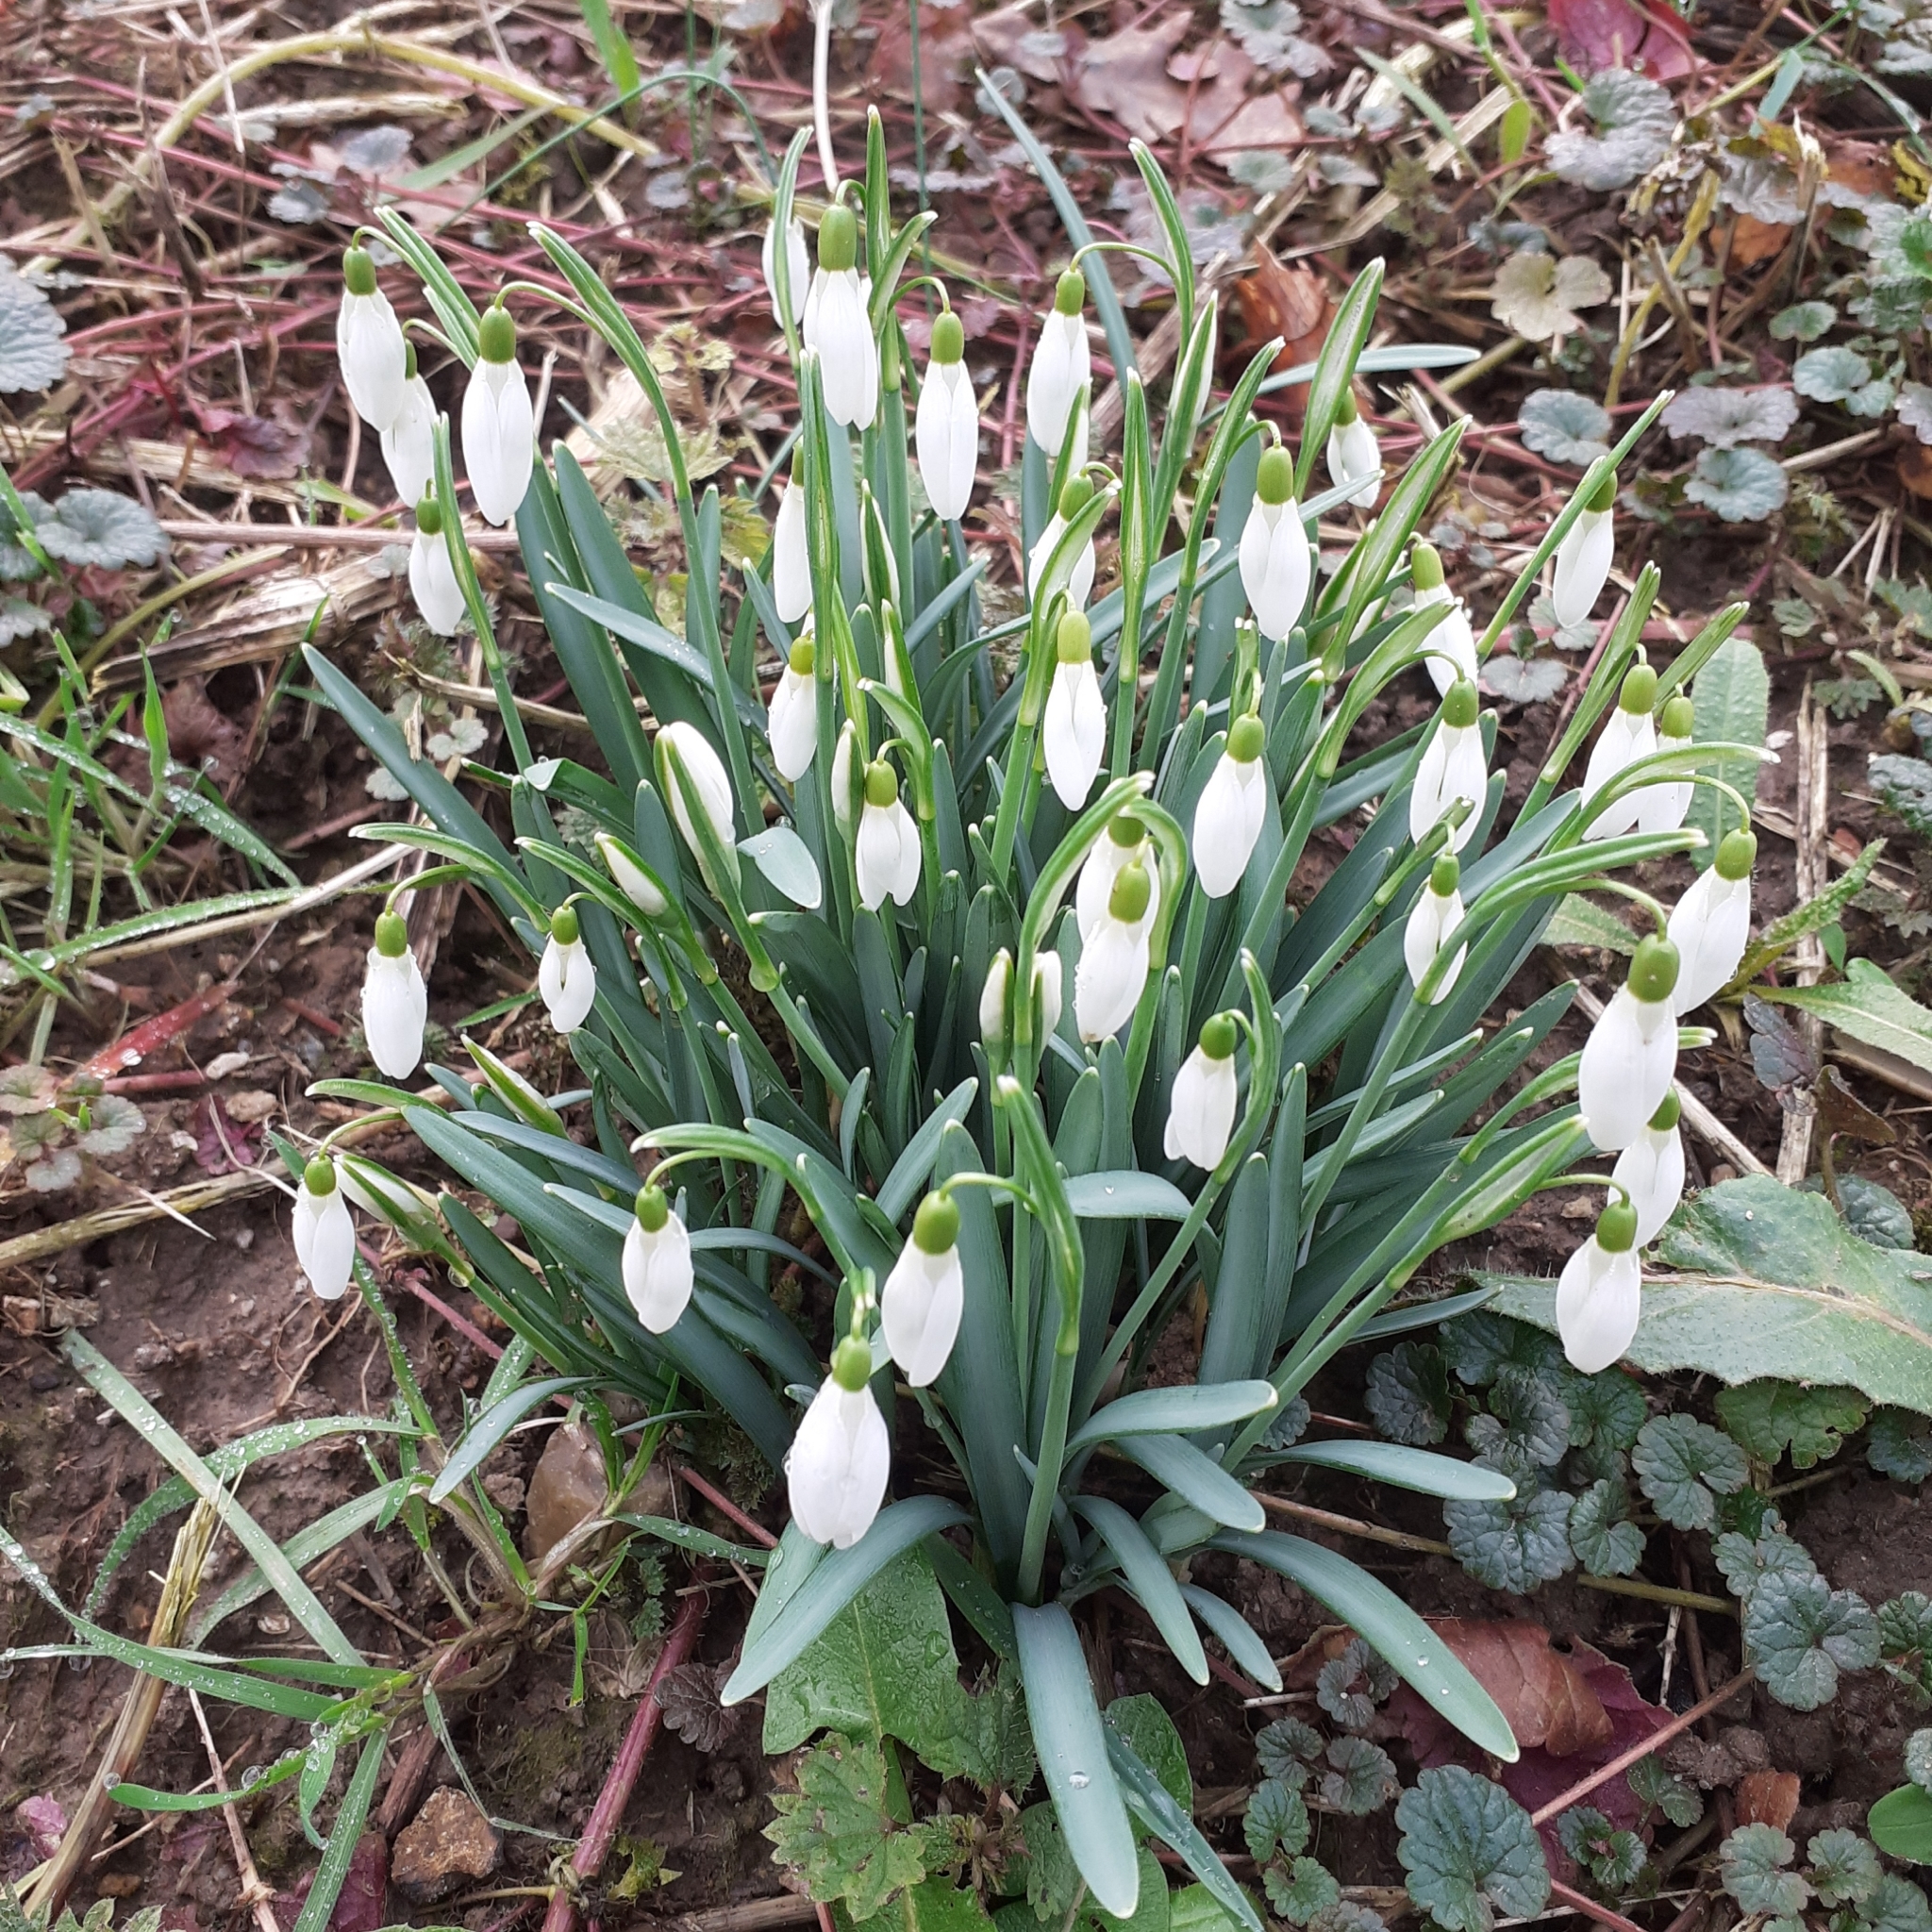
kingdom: Plantae
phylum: Tracheophyta
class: Liliopsida
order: Asparagales
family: Amaryllidaceae
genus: Galanthus
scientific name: Galanthus nivalis
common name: Snowdrop
